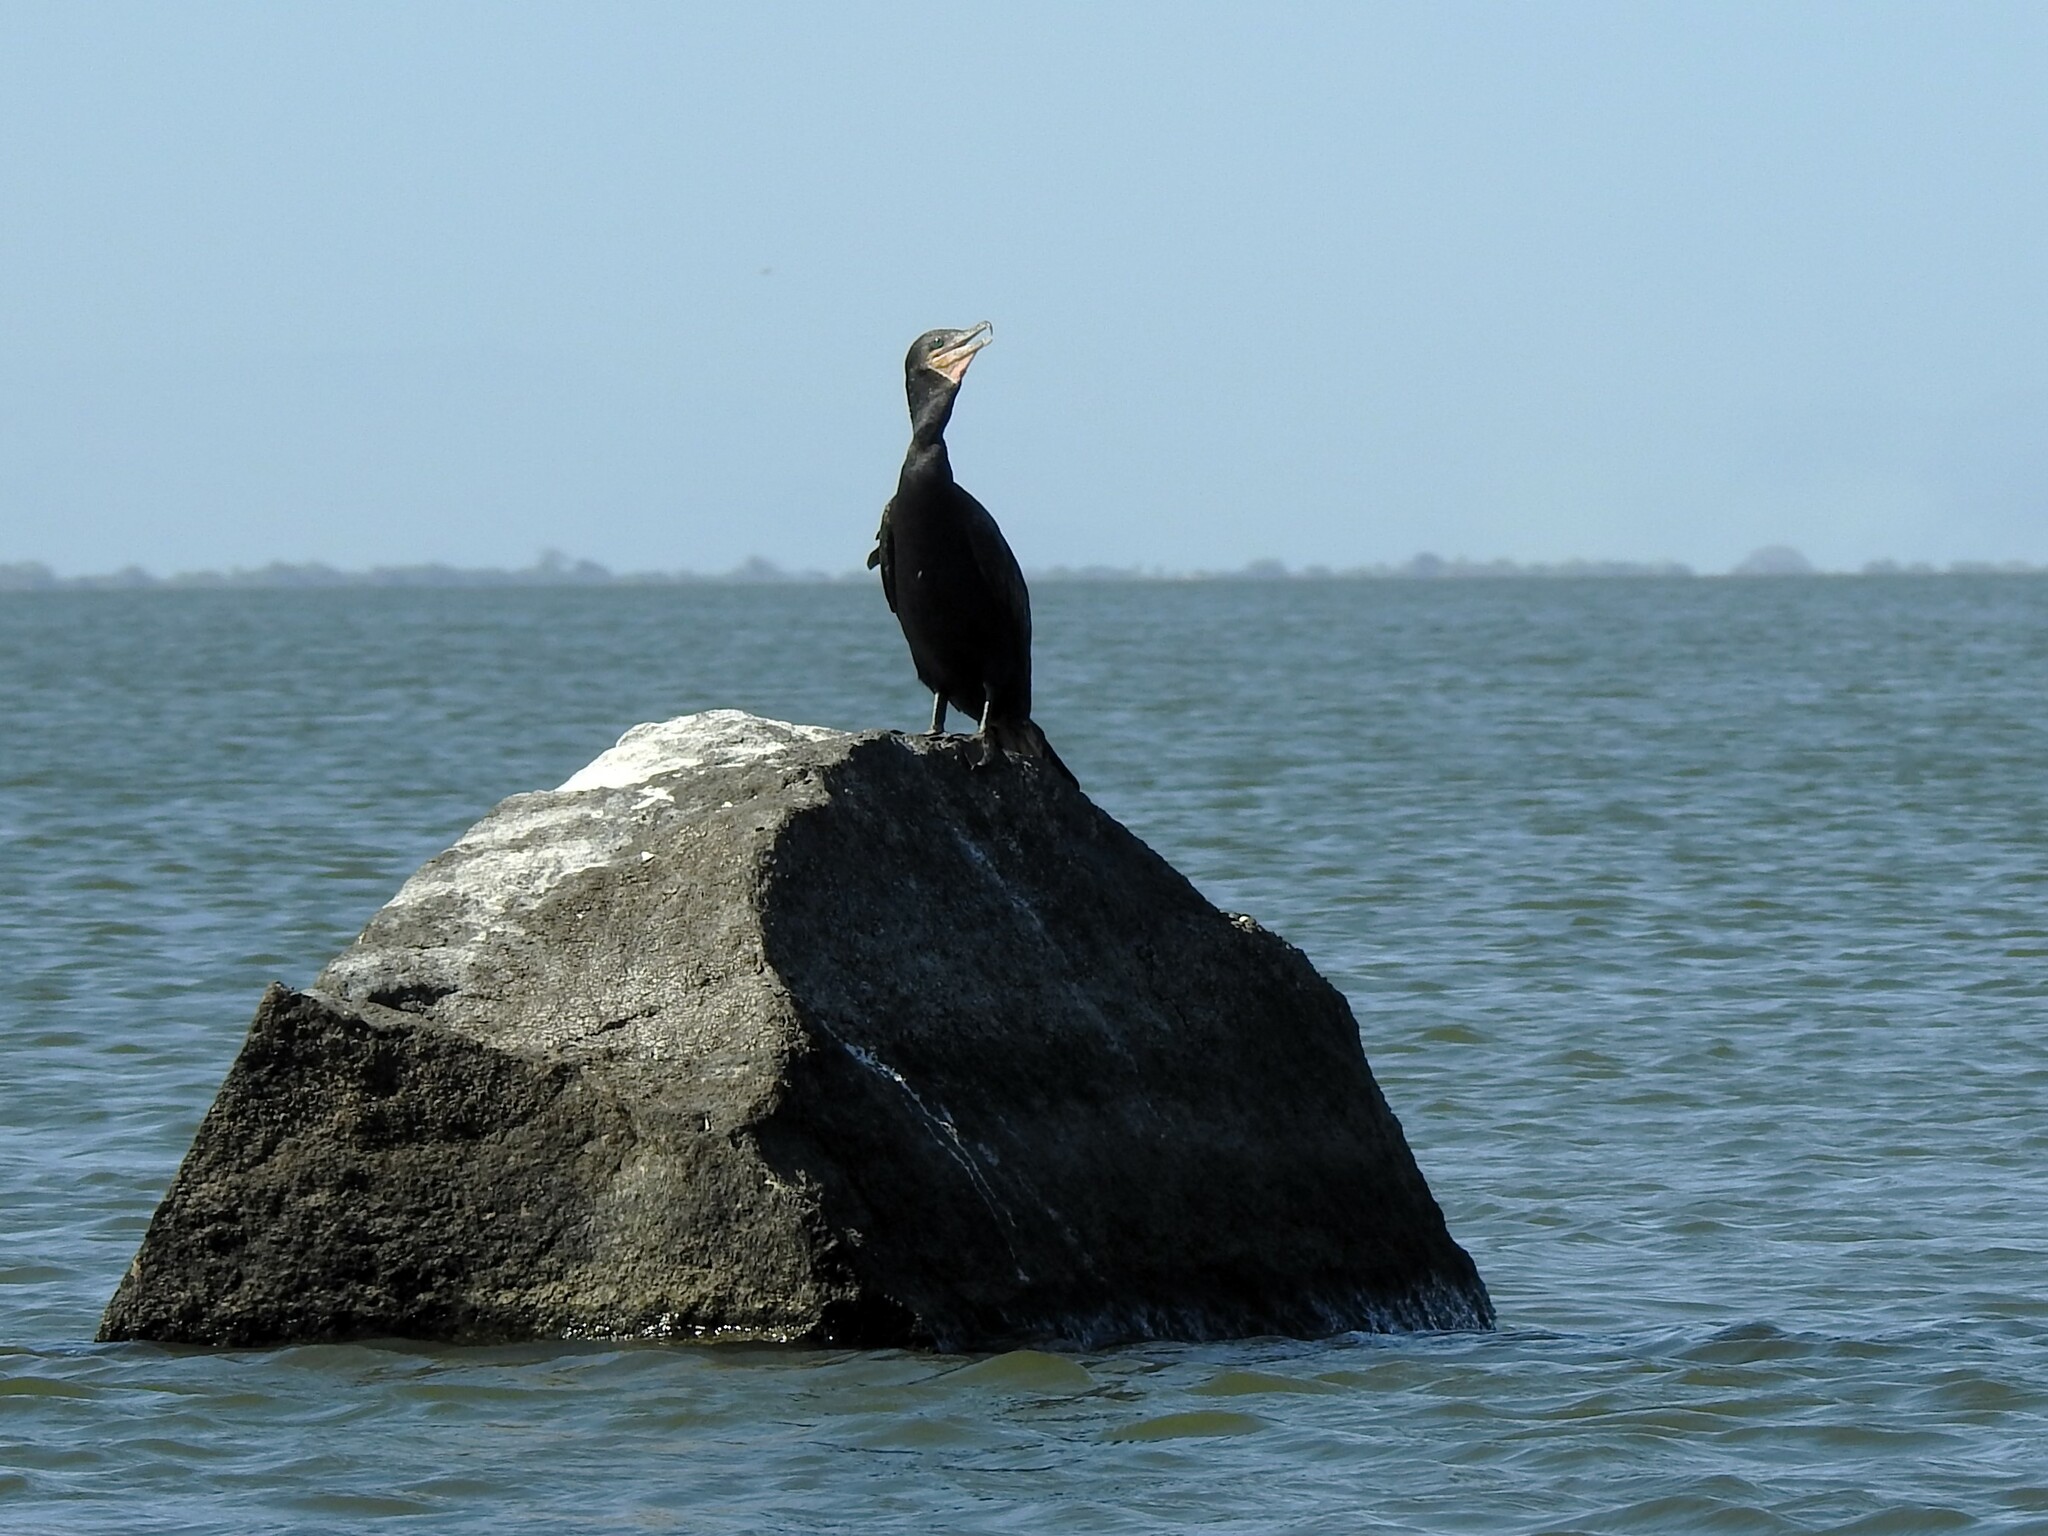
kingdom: Animalia
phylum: Chordata
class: Aves
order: Suliformes
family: Phalacrocoracidae
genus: Phalacrocorax
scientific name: Phalacrocorax brasilianus
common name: Neotropic cormorant
